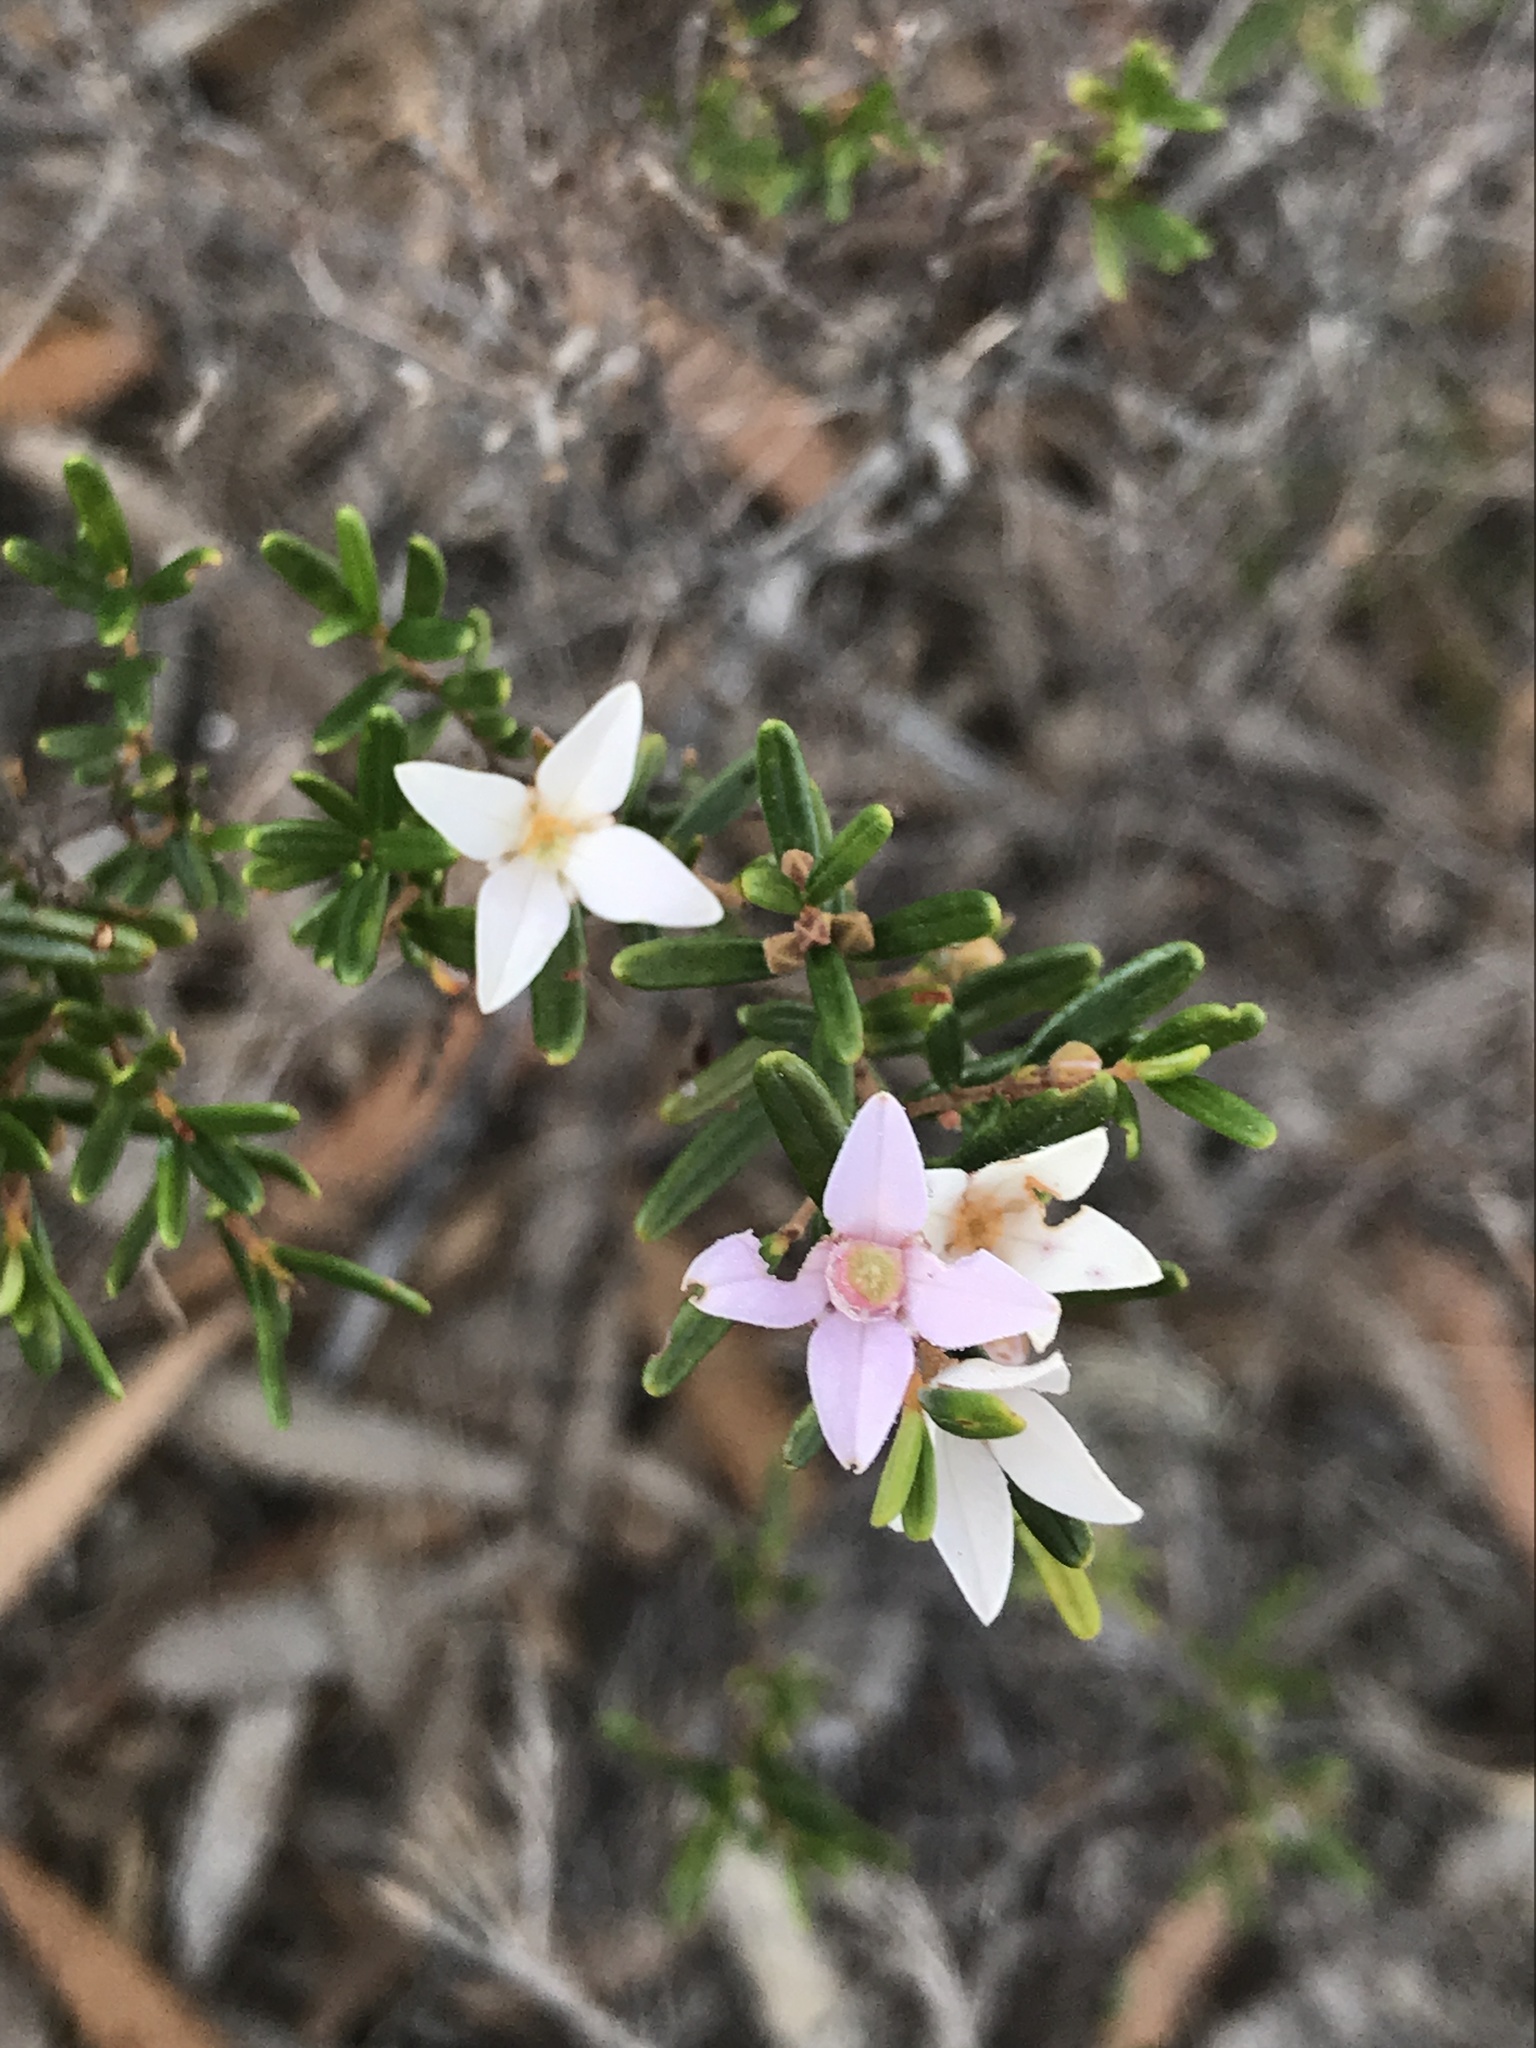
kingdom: Plantae
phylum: Tracheophyta
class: Magnoliopsida
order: Sapindales
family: Rutaceae
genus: Boronia
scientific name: Boronia rosmarinifolia
